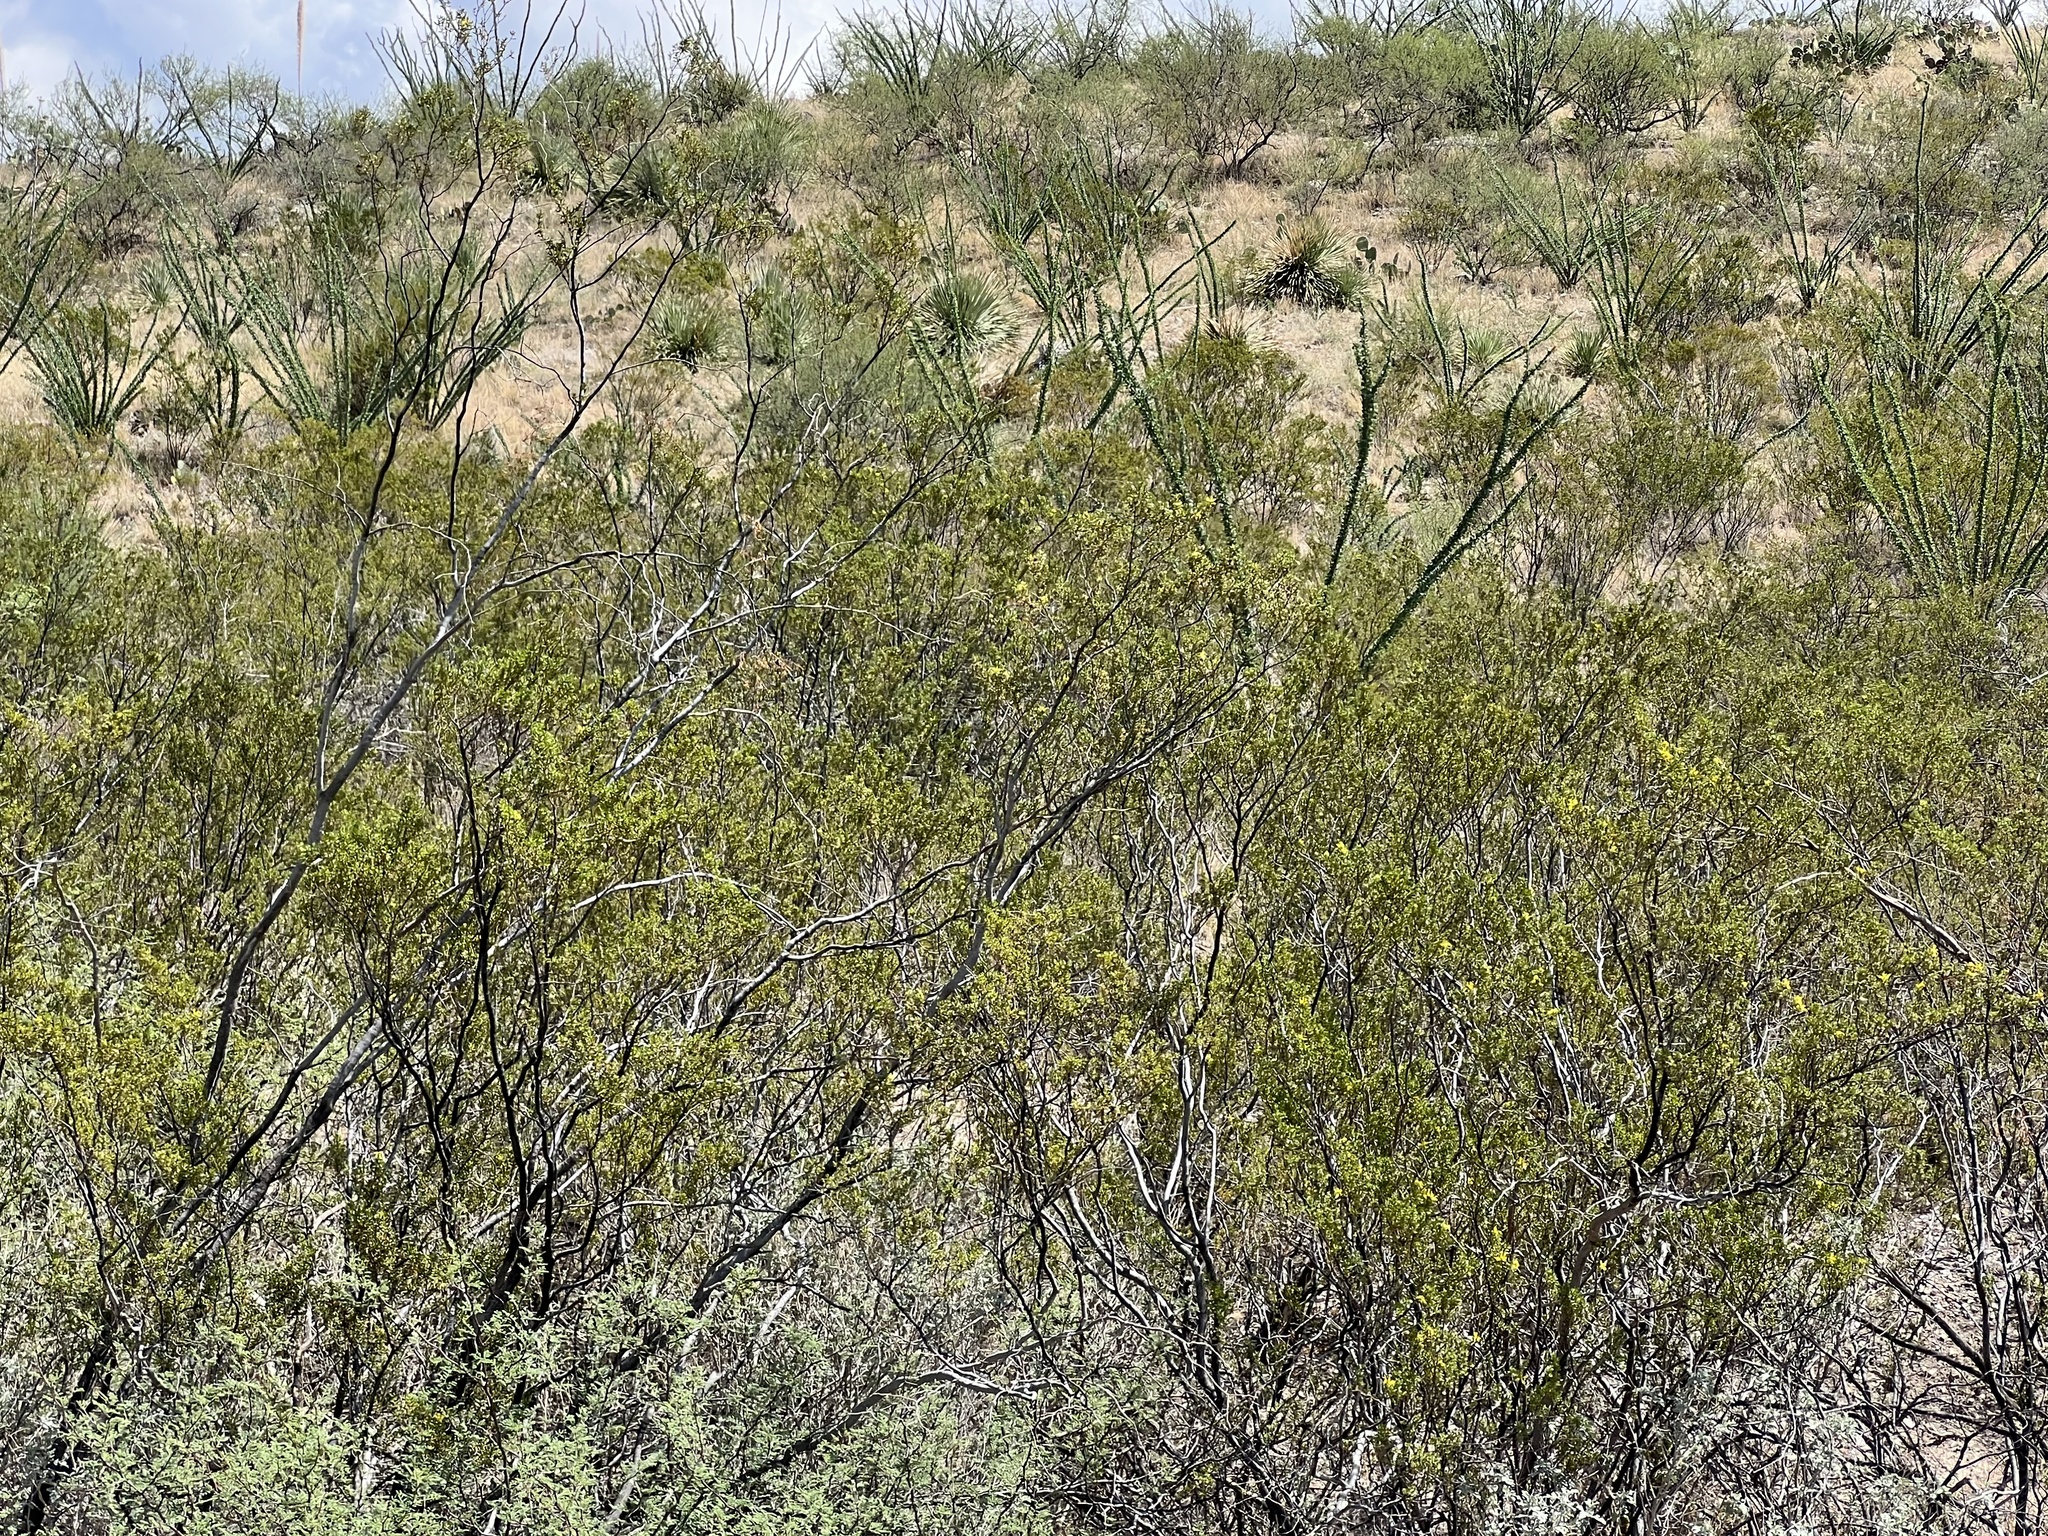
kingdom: Plantae
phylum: Tracheophyta
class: Magnoliopsida
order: Zygophyllales
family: Zygophyllaceae
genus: Larrea
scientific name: Larrea tridentata
